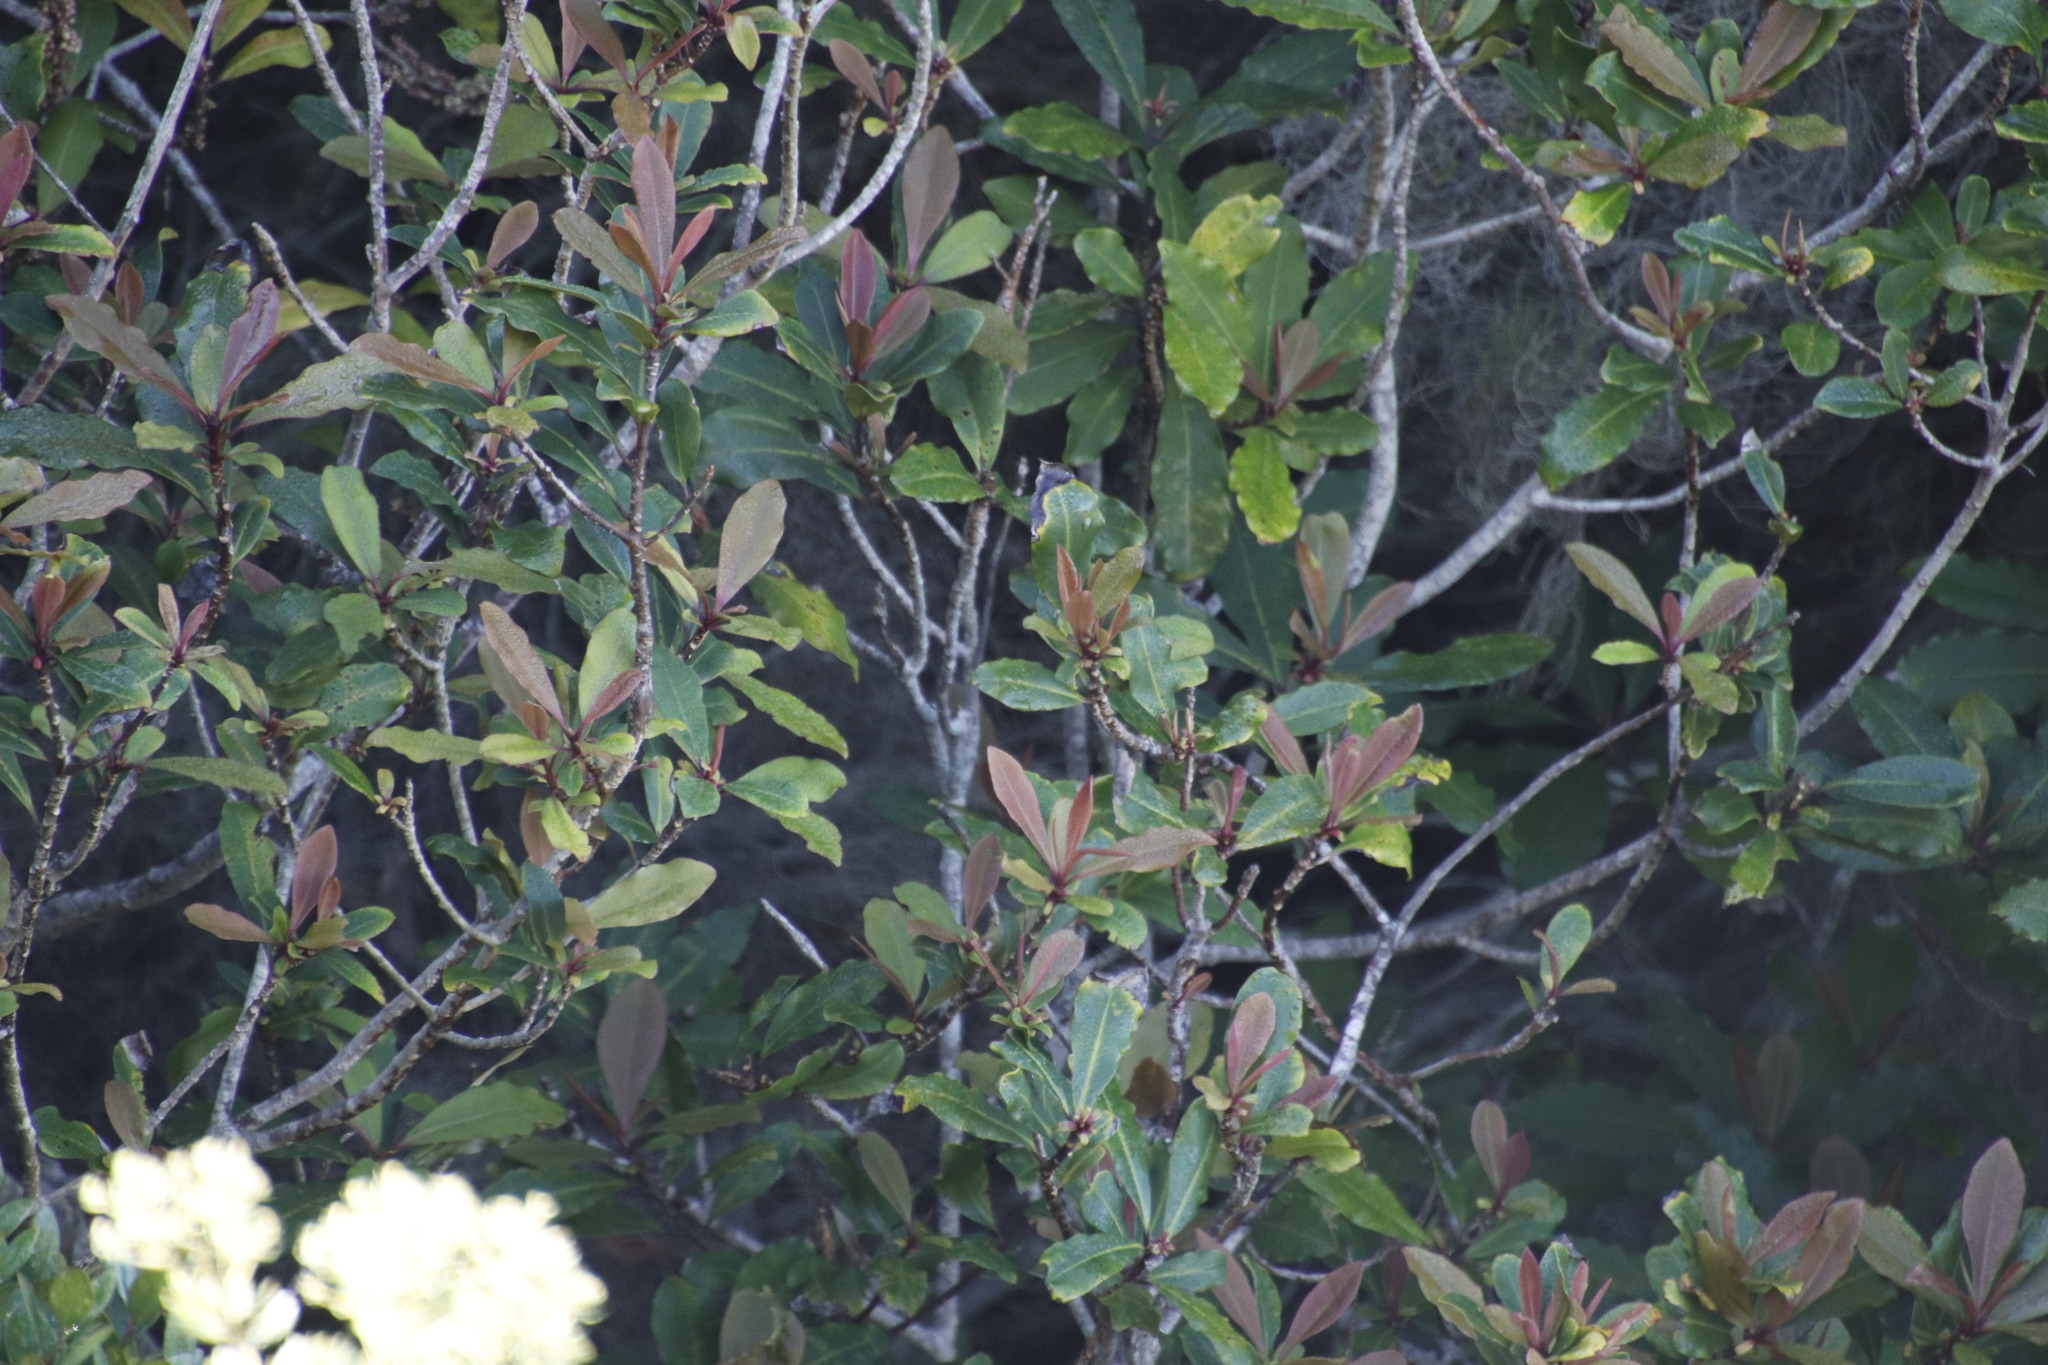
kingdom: Plantae
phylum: Tracheophyta
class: Magnoliopsida
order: Ericales
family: Primulaceae
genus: Myrsine
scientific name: Myrsine melanophloeos
